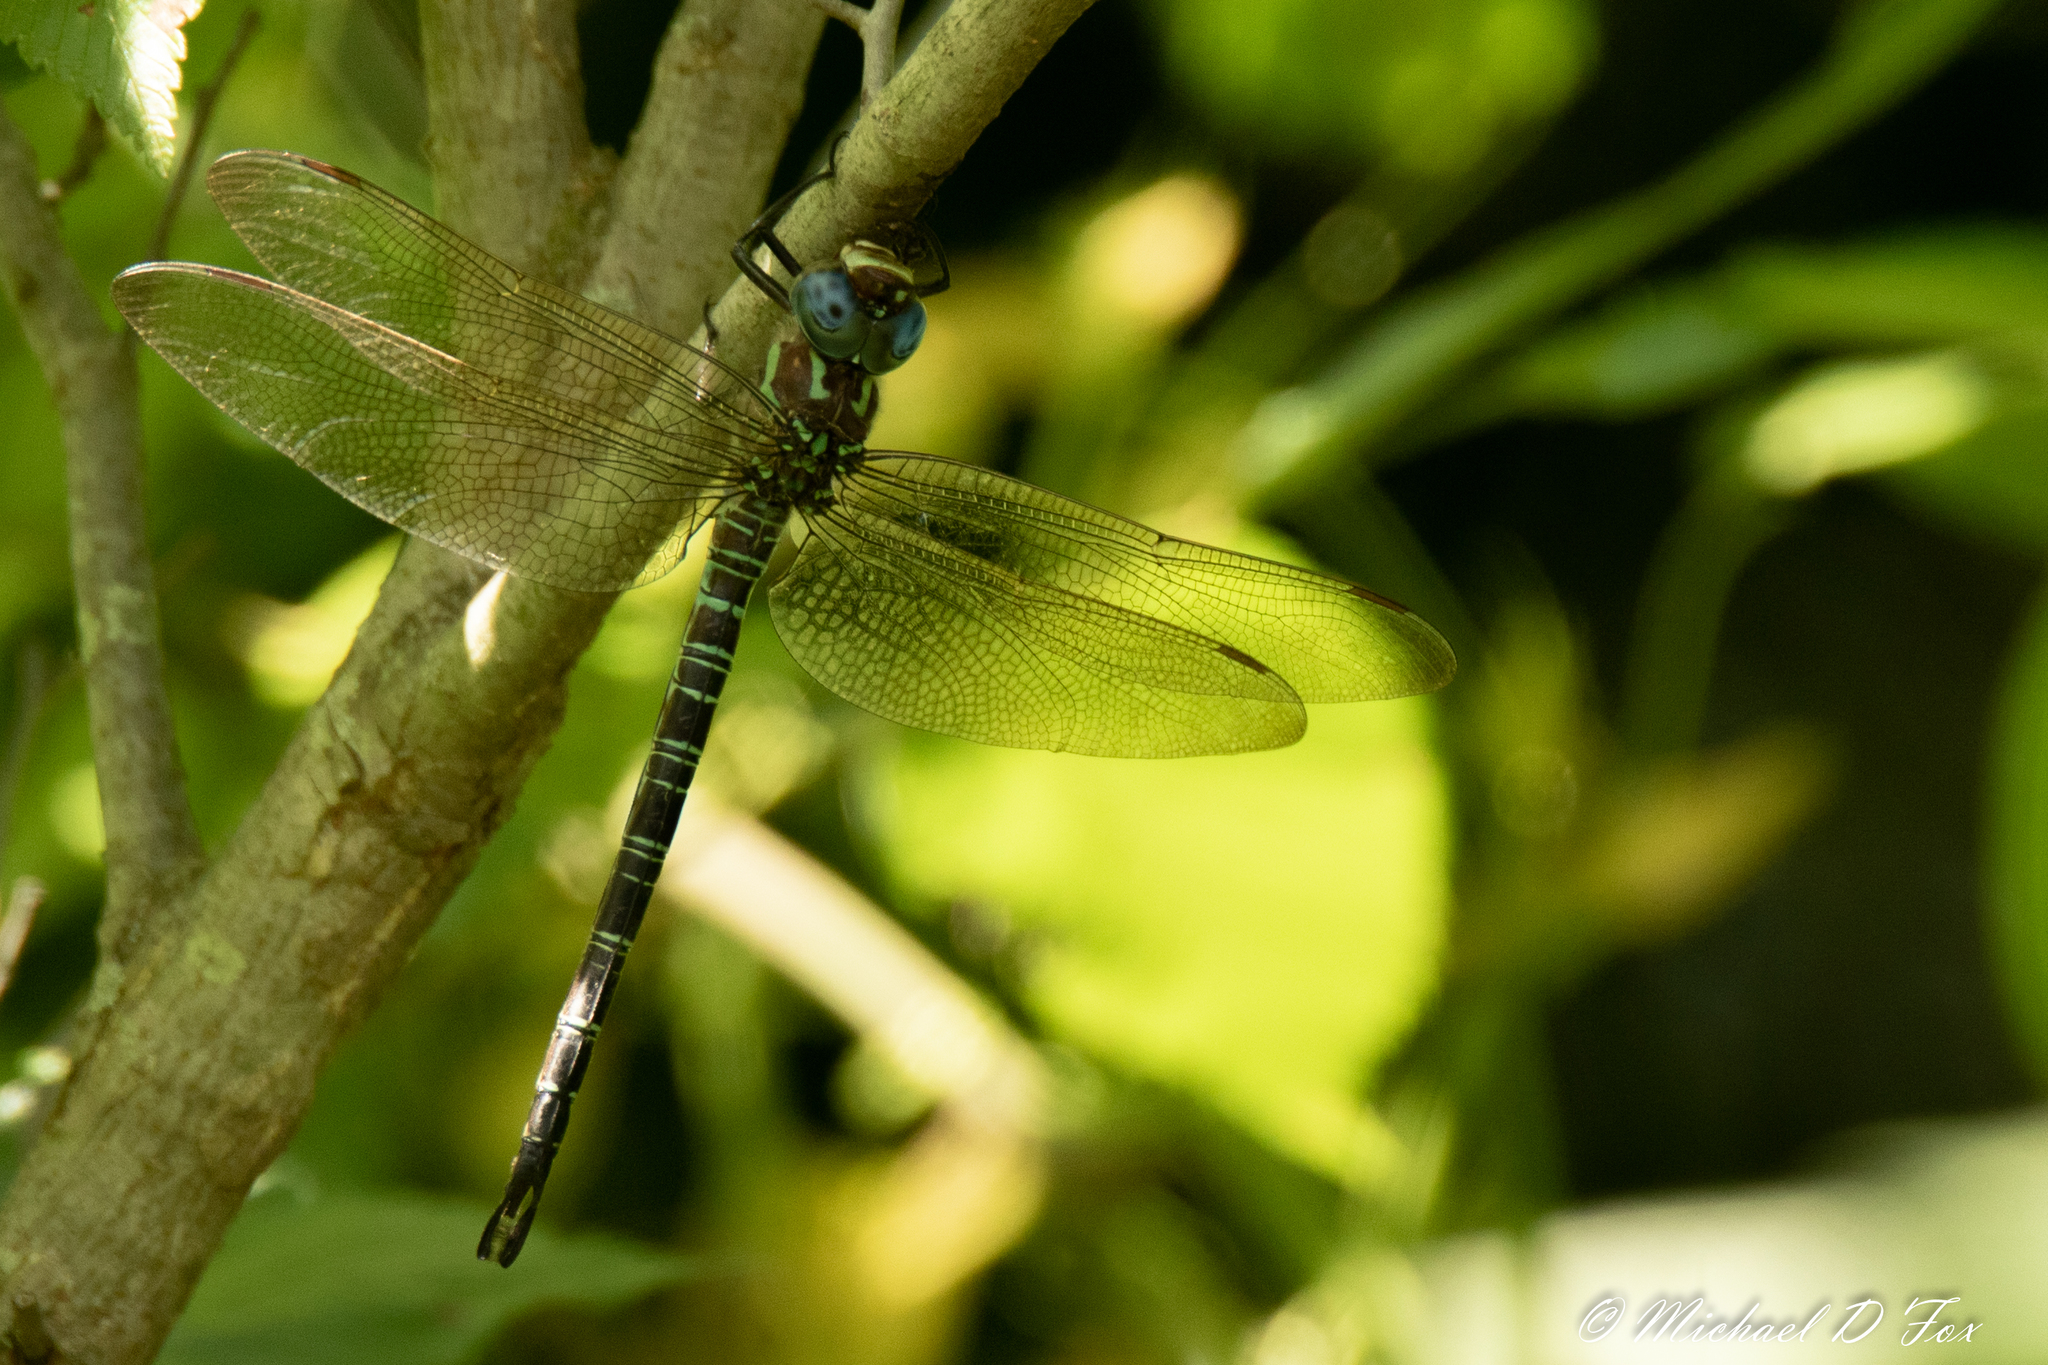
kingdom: Animalia
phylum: Arthropoda
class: Insecta
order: Odonata
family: Aeshnidae
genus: Epiaeschna
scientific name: Epiaeschna heros
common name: Swamp darner
